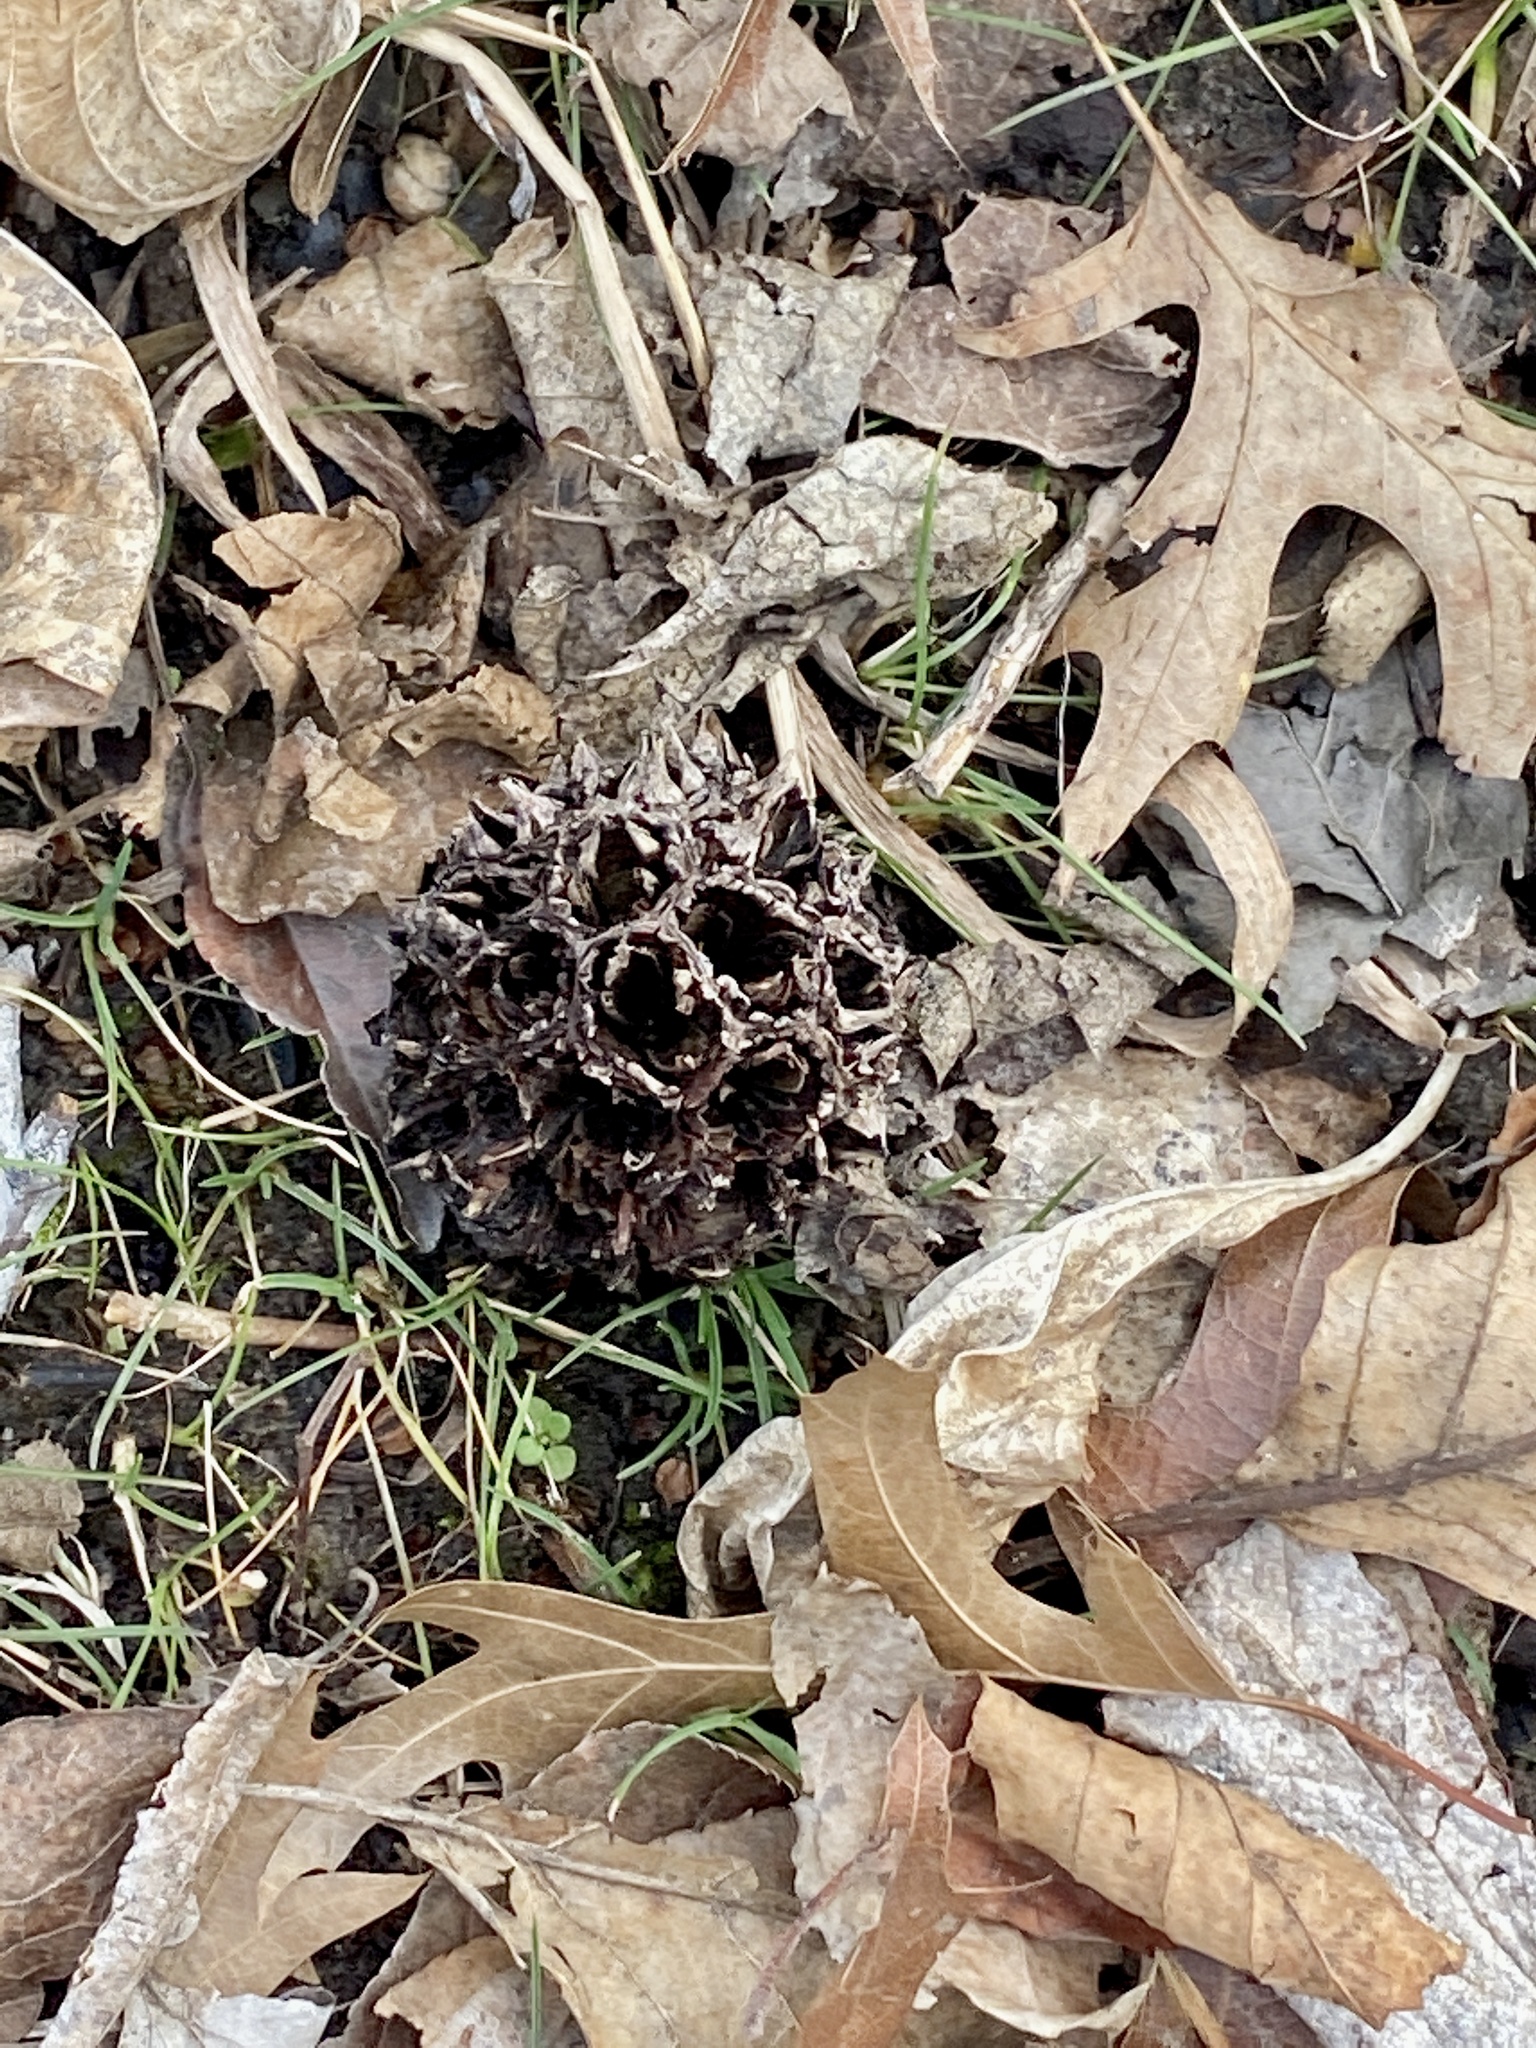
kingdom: Plantae
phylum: Tracheophyta
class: Magnoliopsida
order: Saxifragales
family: Altingiaceae
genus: Liquidambar
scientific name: Liquidambar styraciflua
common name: Sweet gum
